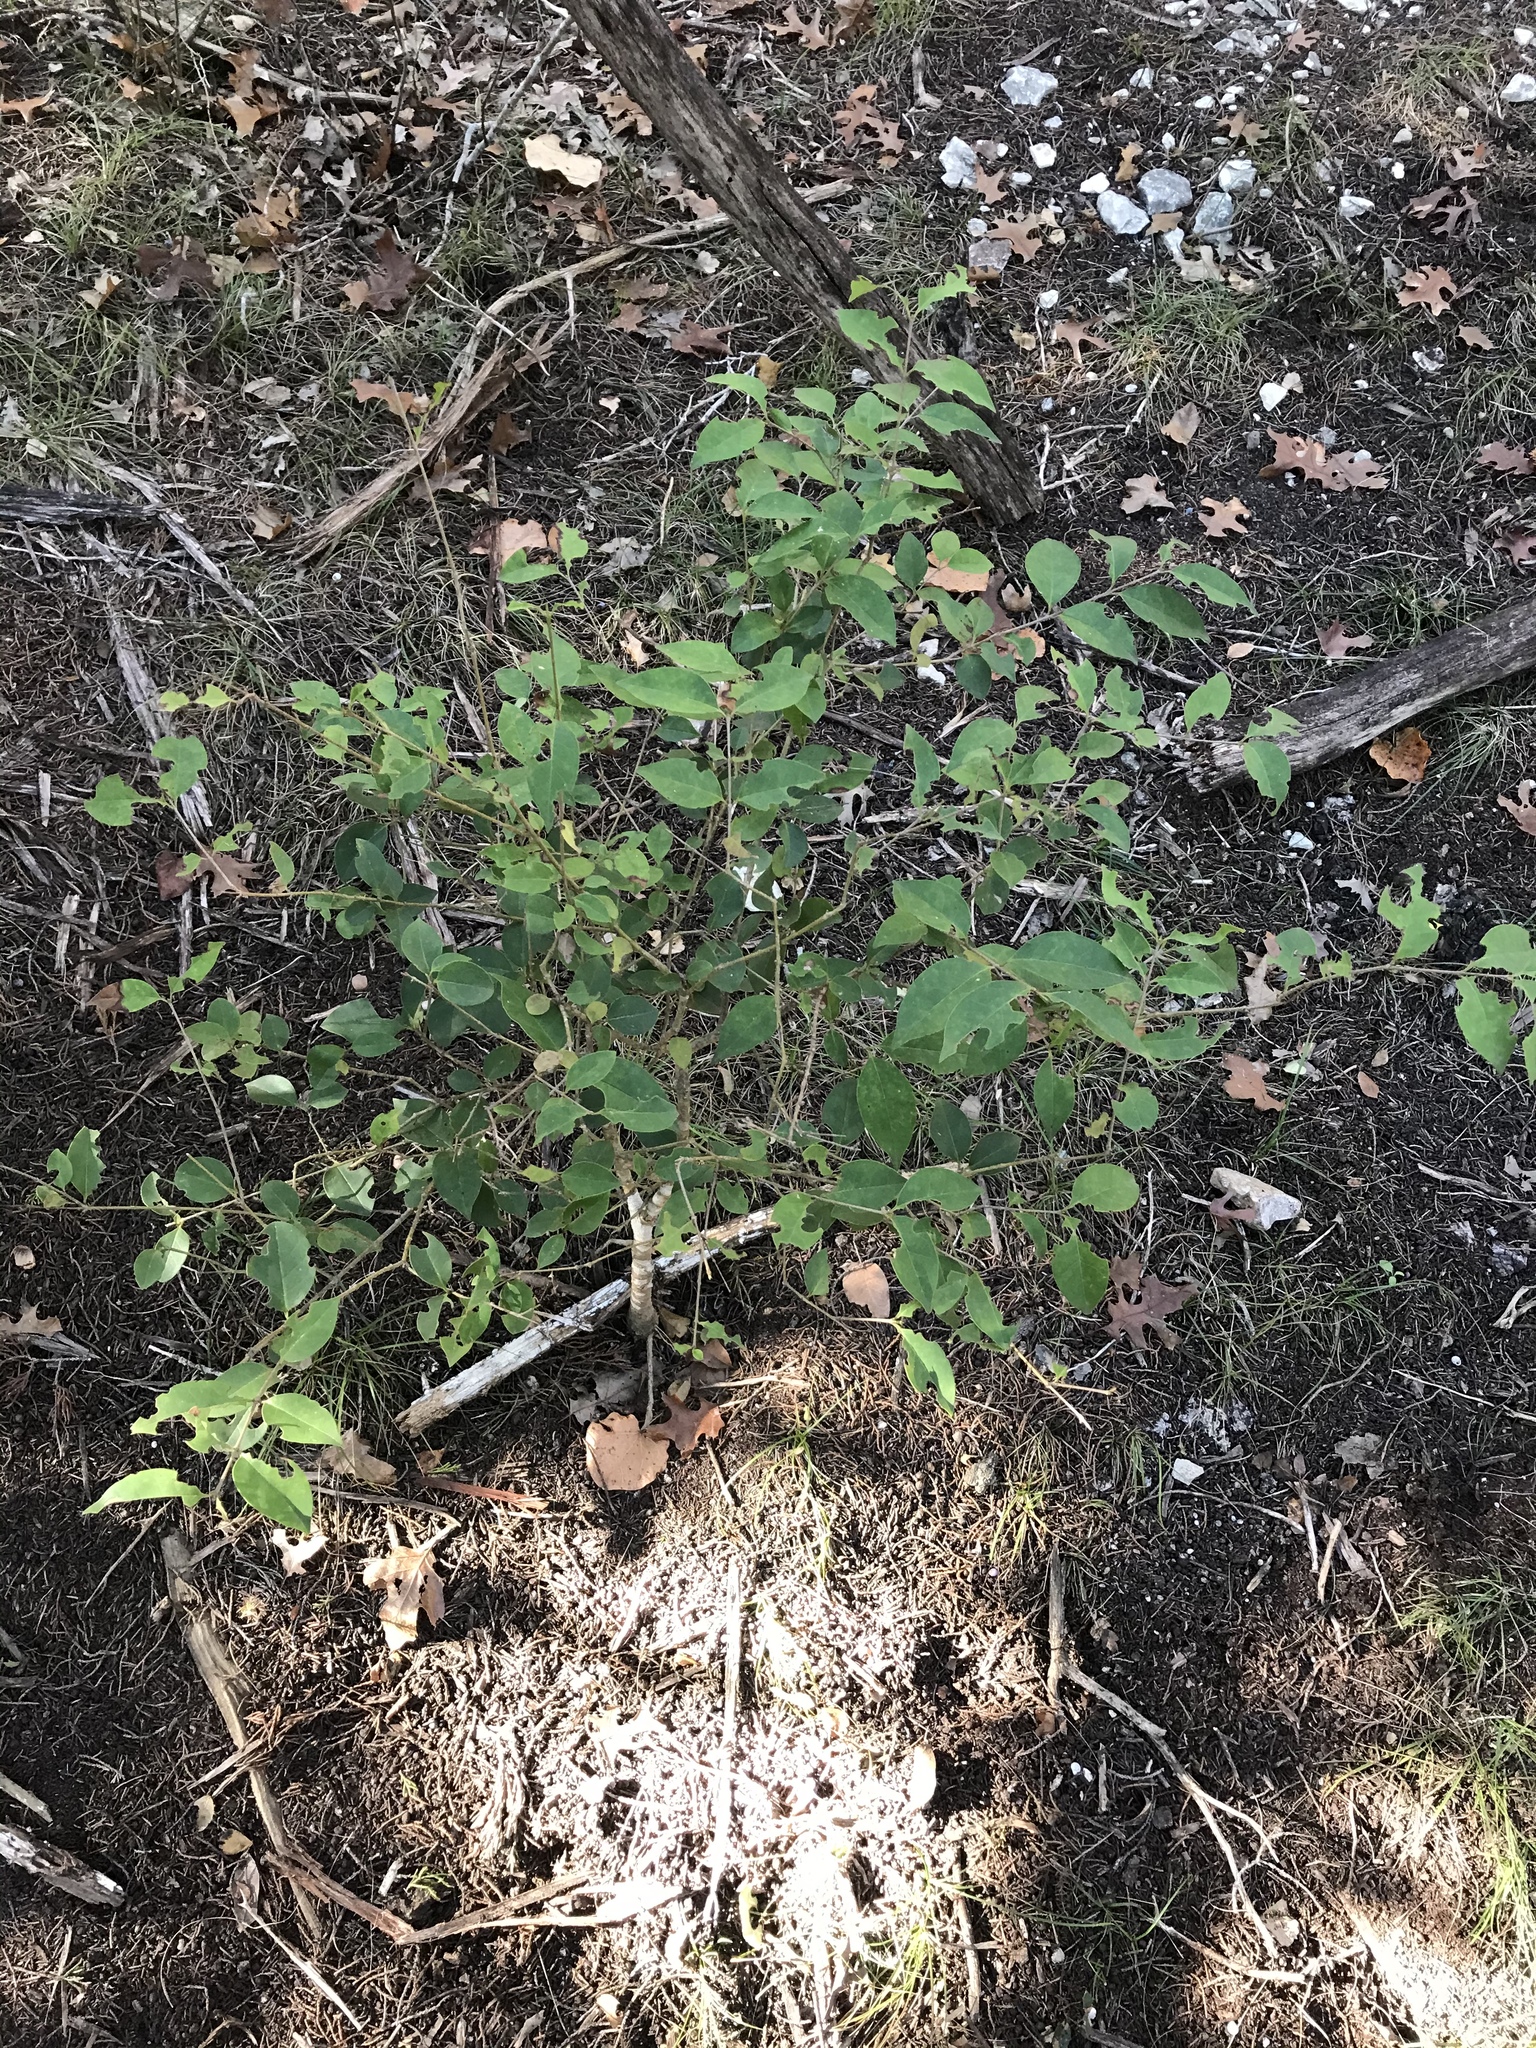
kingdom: Plantae
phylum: Tracheophyta
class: Magnoliopsida
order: Lamiales
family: Oleaceae
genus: Ligustrum
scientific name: Ligustrum lucidum
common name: Glossy privet
